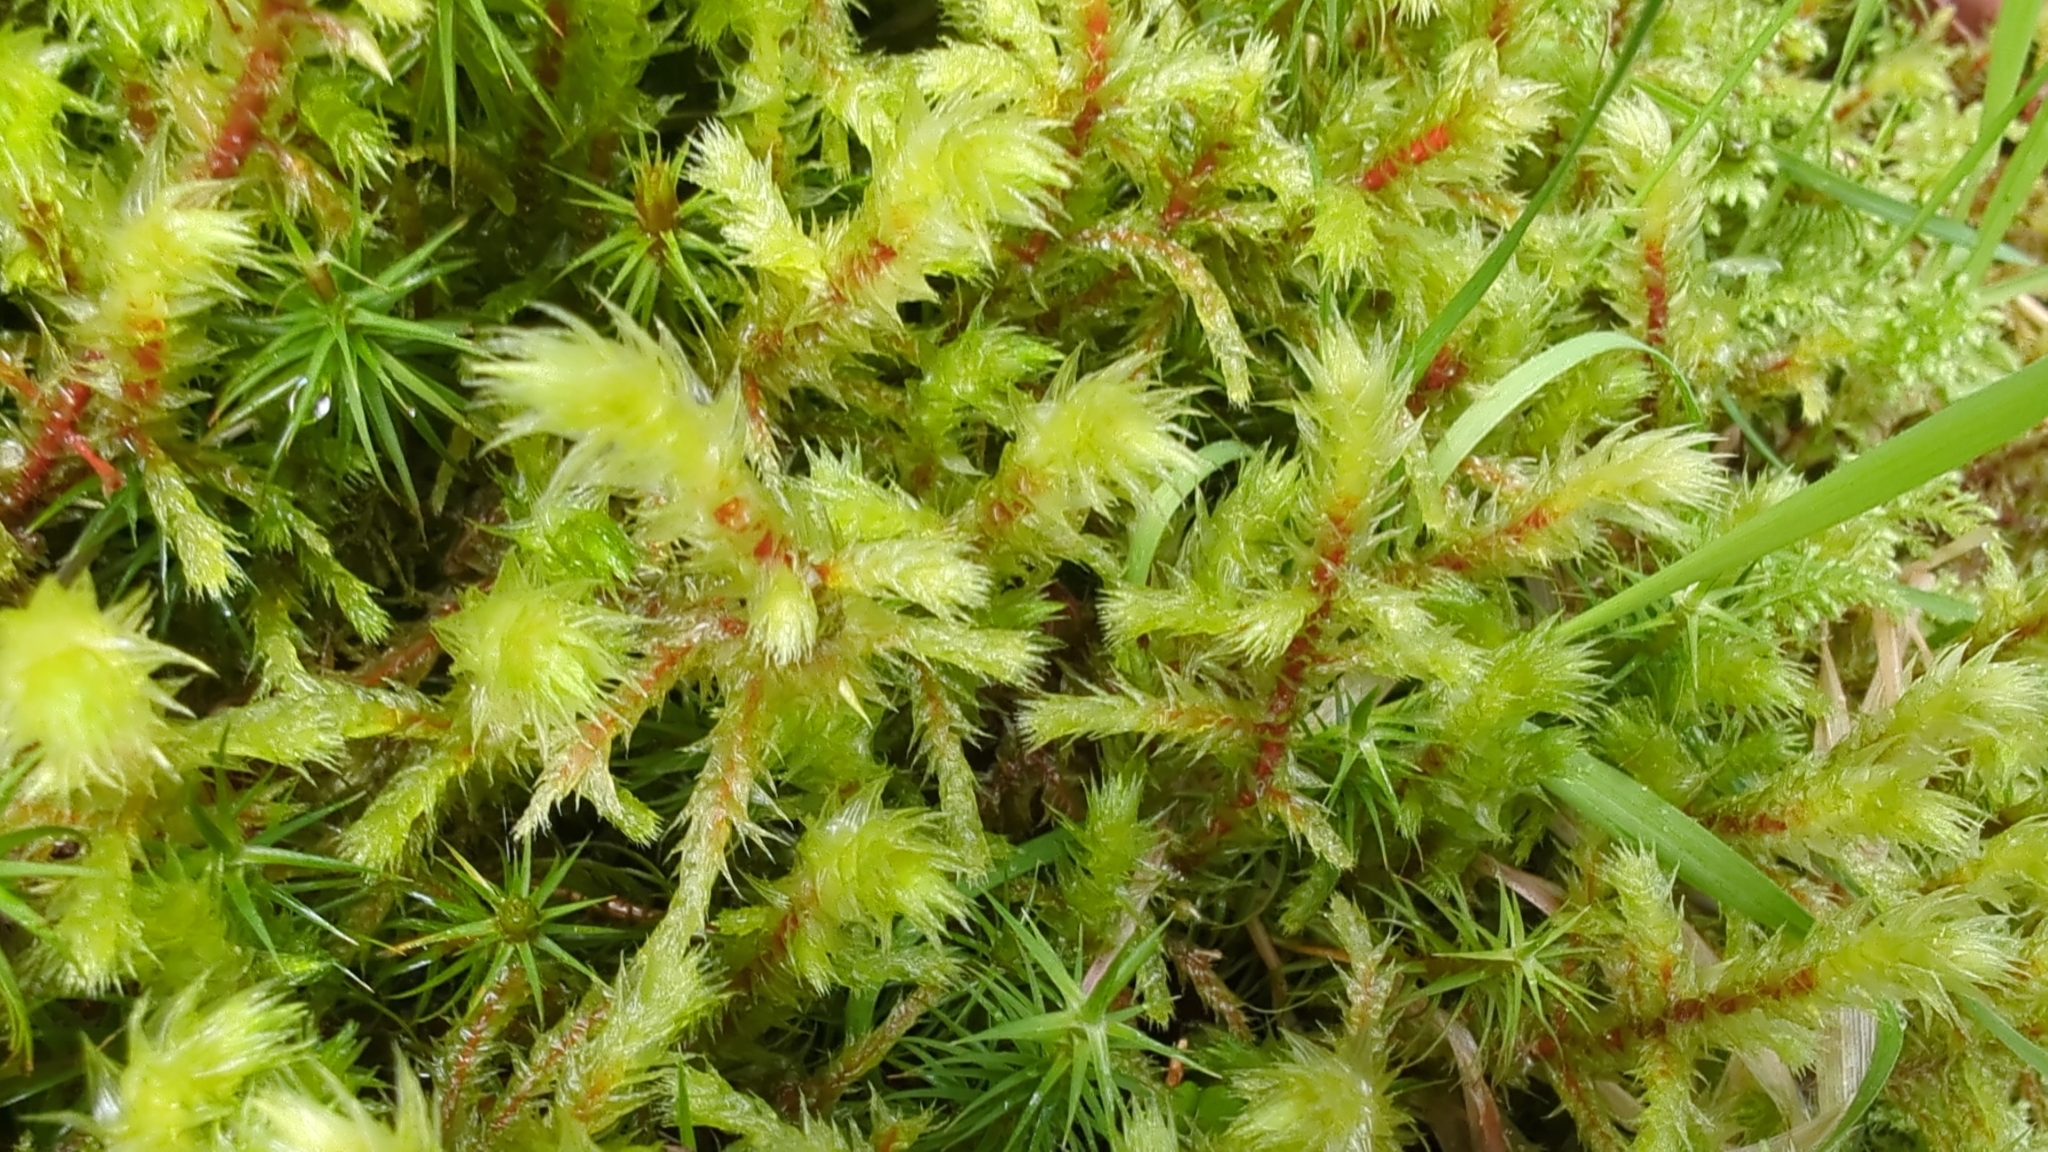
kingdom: Plantae
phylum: Bryophyta
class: Bryopsida
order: Hypnales
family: Hylocomiaceae
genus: Hylocomiadelphus
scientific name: Hylocomiadelphus triquetrus
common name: Rough goose neck moss
